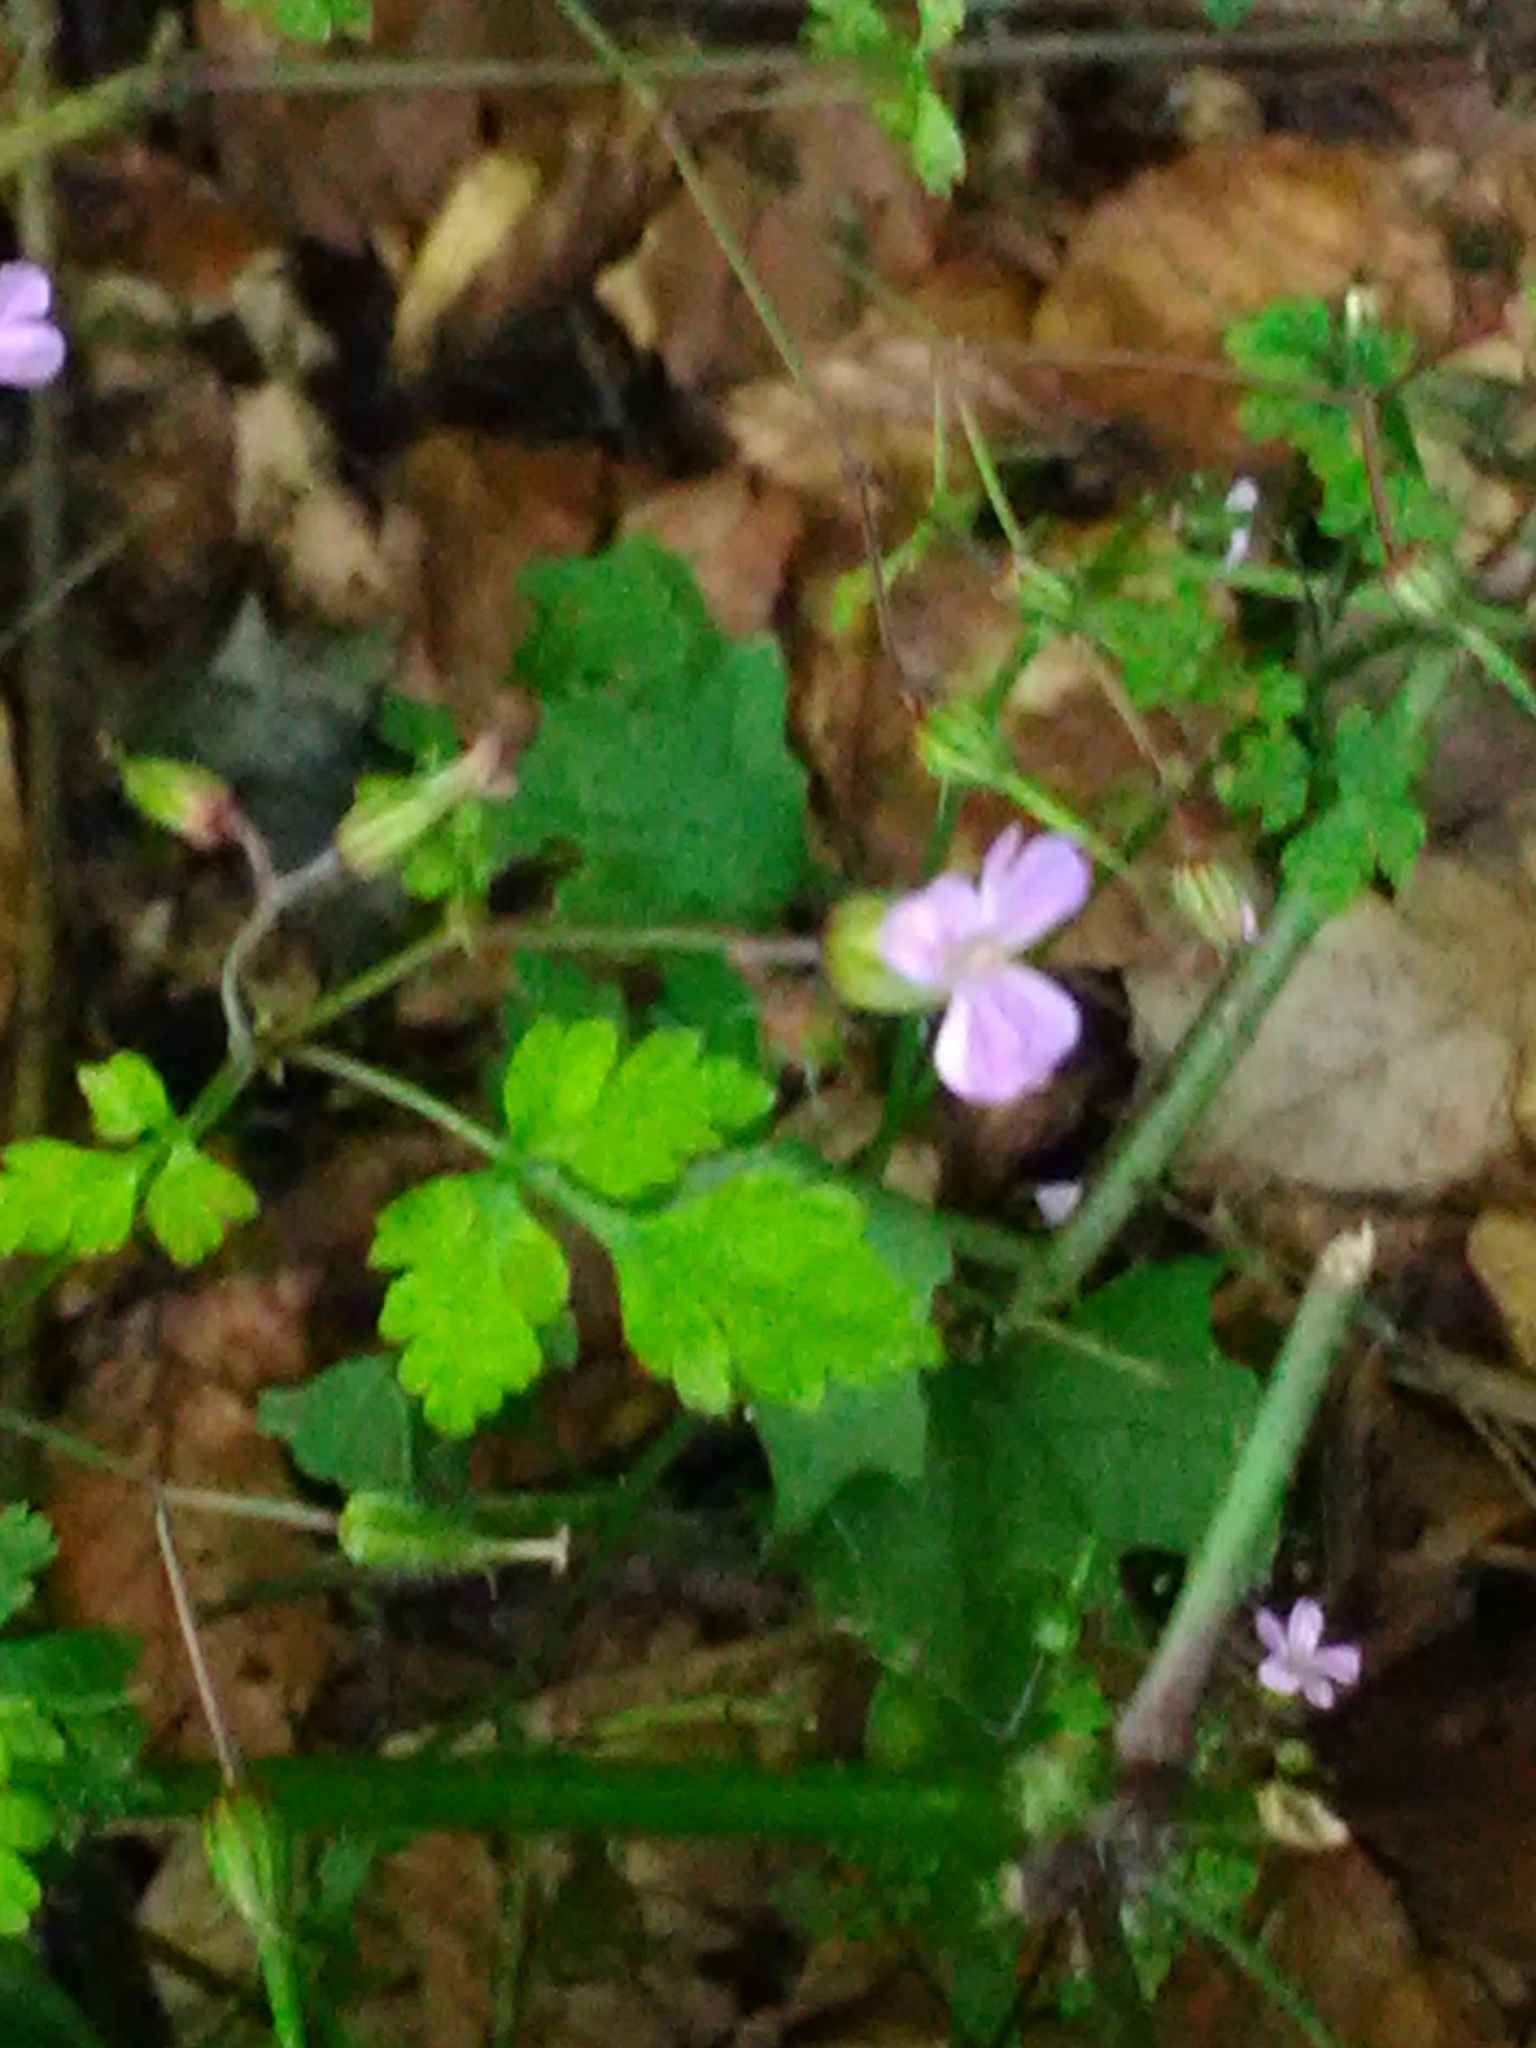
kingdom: Plantae
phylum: Tracheophyta
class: Magnoliopsida
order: Geraniales
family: Geraniaceae
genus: Geranium
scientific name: Geranium robertianum
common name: Herb-robert
